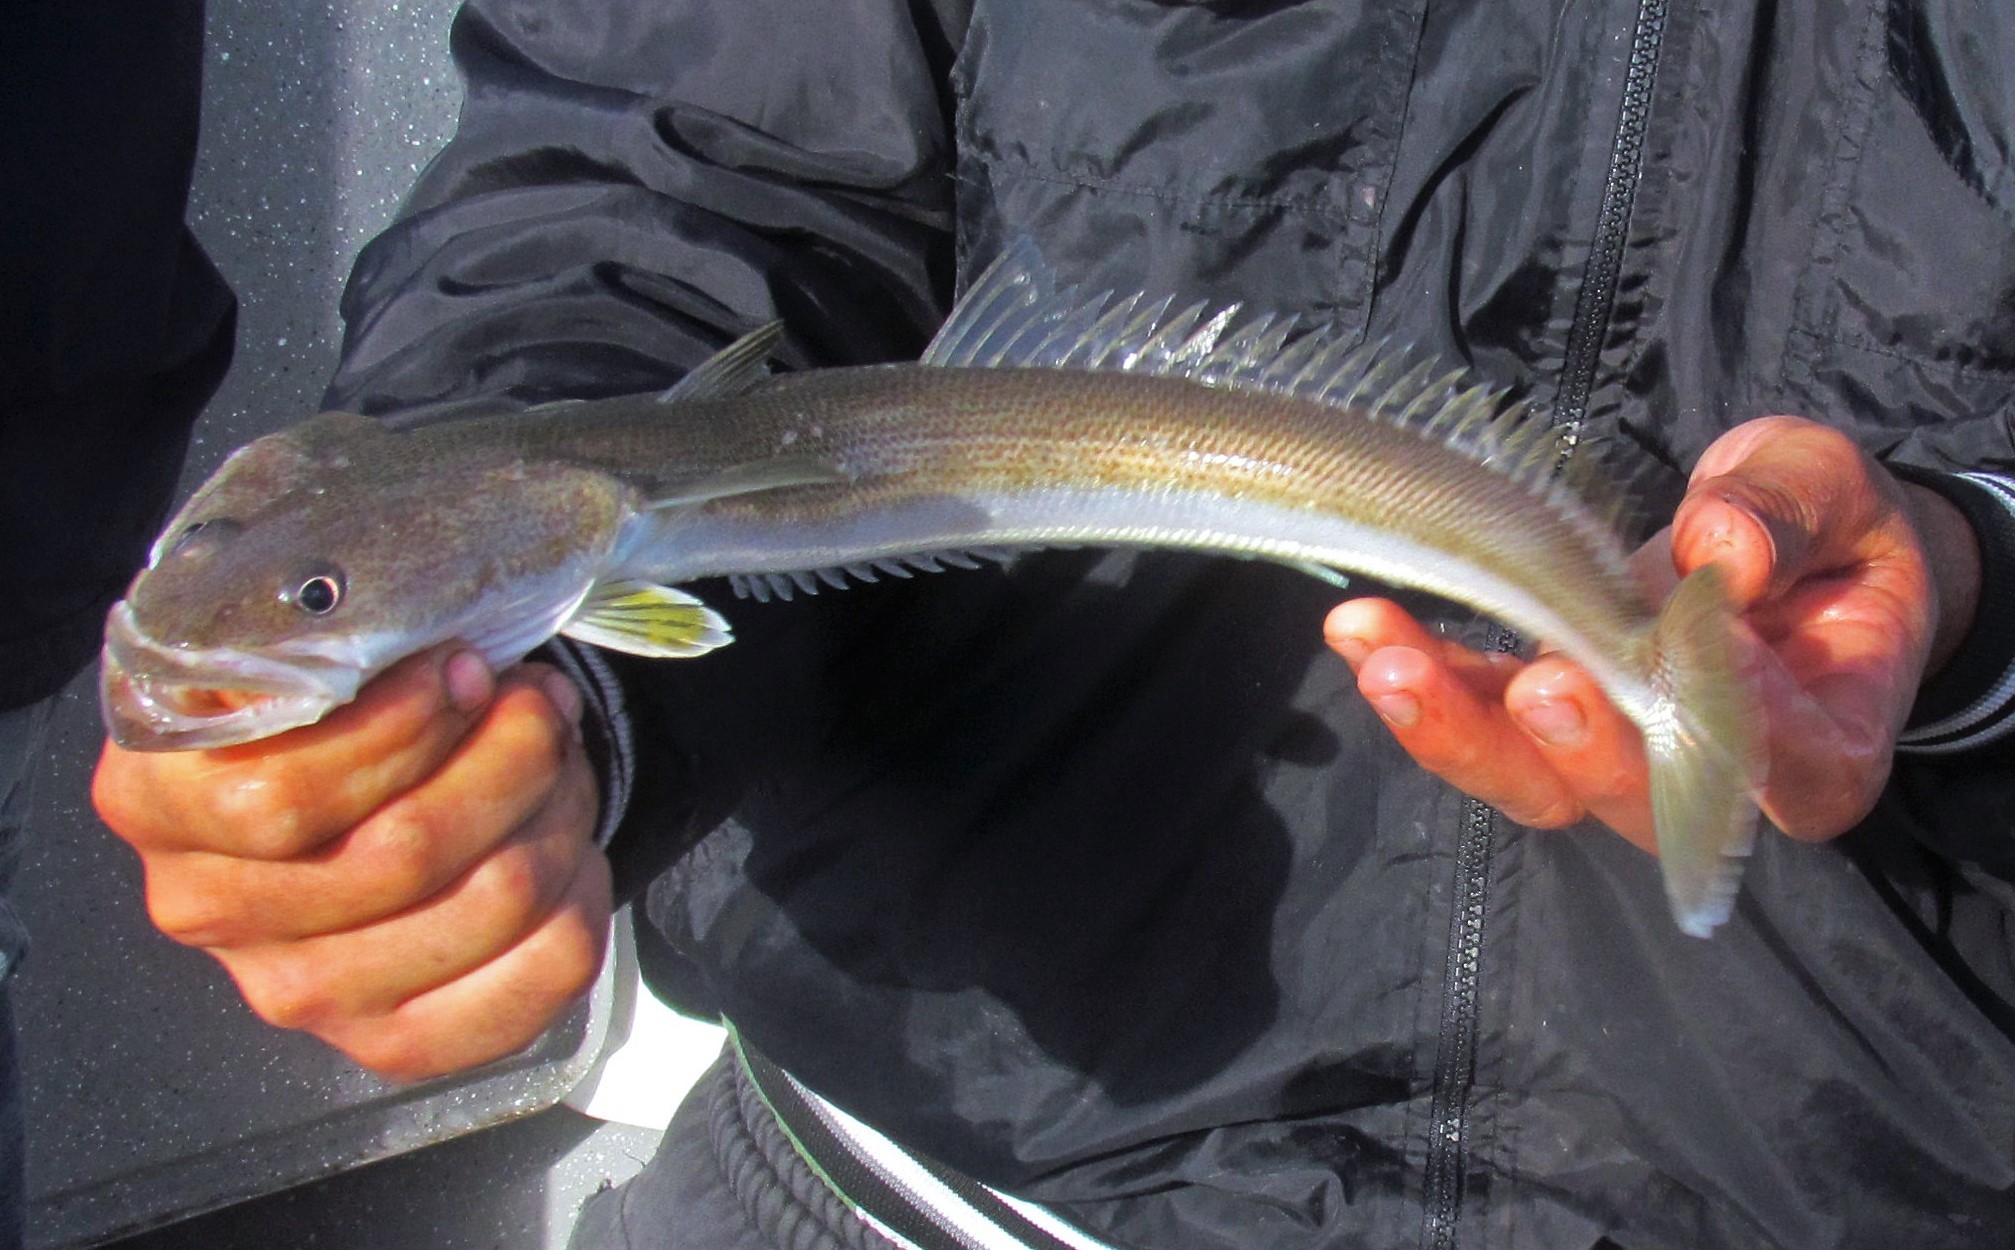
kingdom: Animalia
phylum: Chordata
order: Perciformes
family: Percophidae
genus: Percophis
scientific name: Percophis brasiliensis
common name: Brazilian flathead
